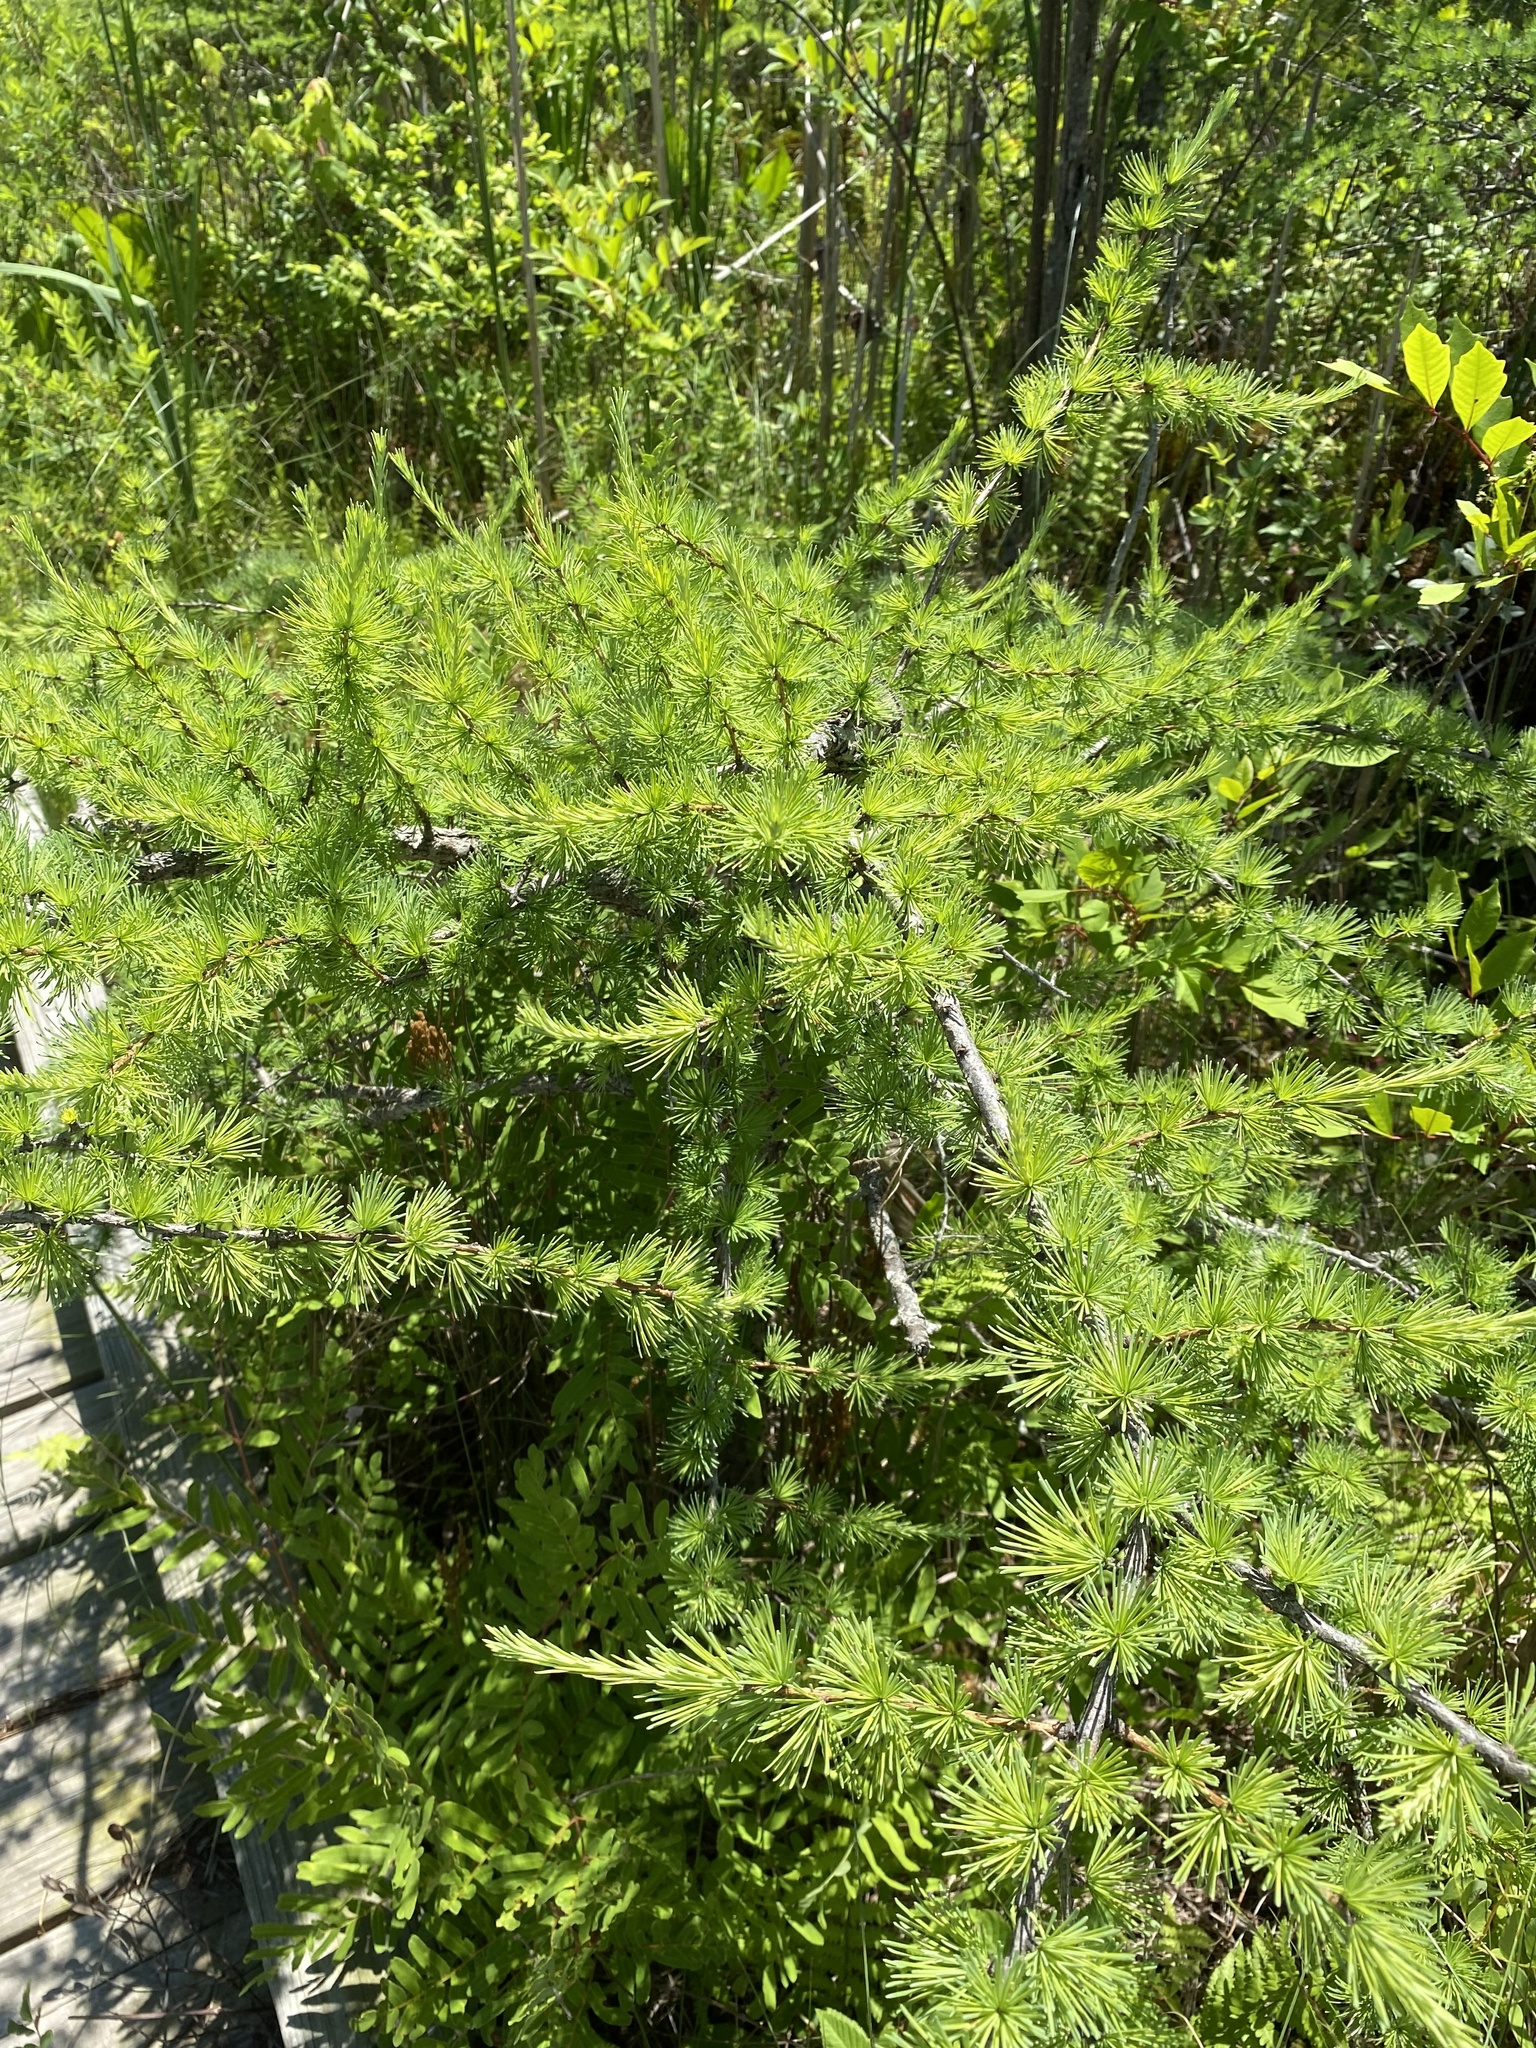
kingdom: Plantae
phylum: Tracheophyta
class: Pinopsida
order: Pinales
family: Pinaceae
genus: Larix
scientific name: Larix laricina
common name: American larch
